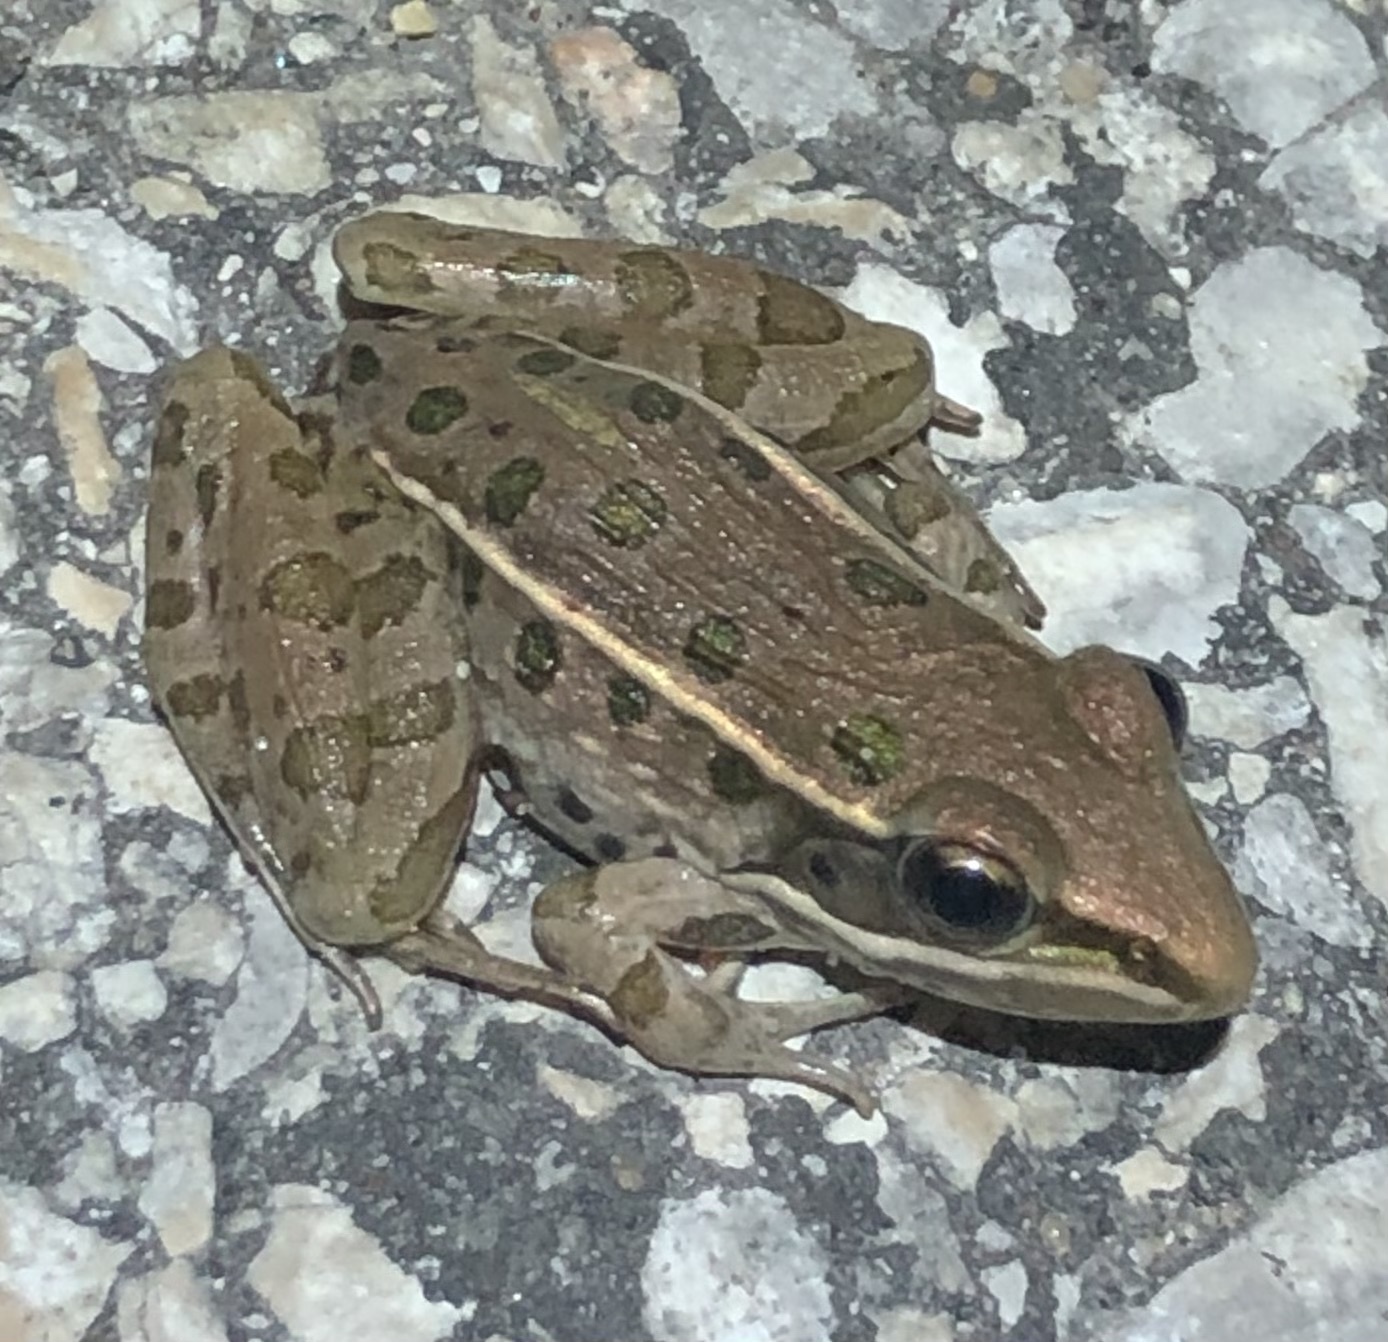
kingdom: Animalia
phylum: Chordata
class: Amphibia
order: Anura
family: Ranidae
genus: Lithobates
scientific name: Lithobates sphenocephalus
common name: Southern leopard frog
